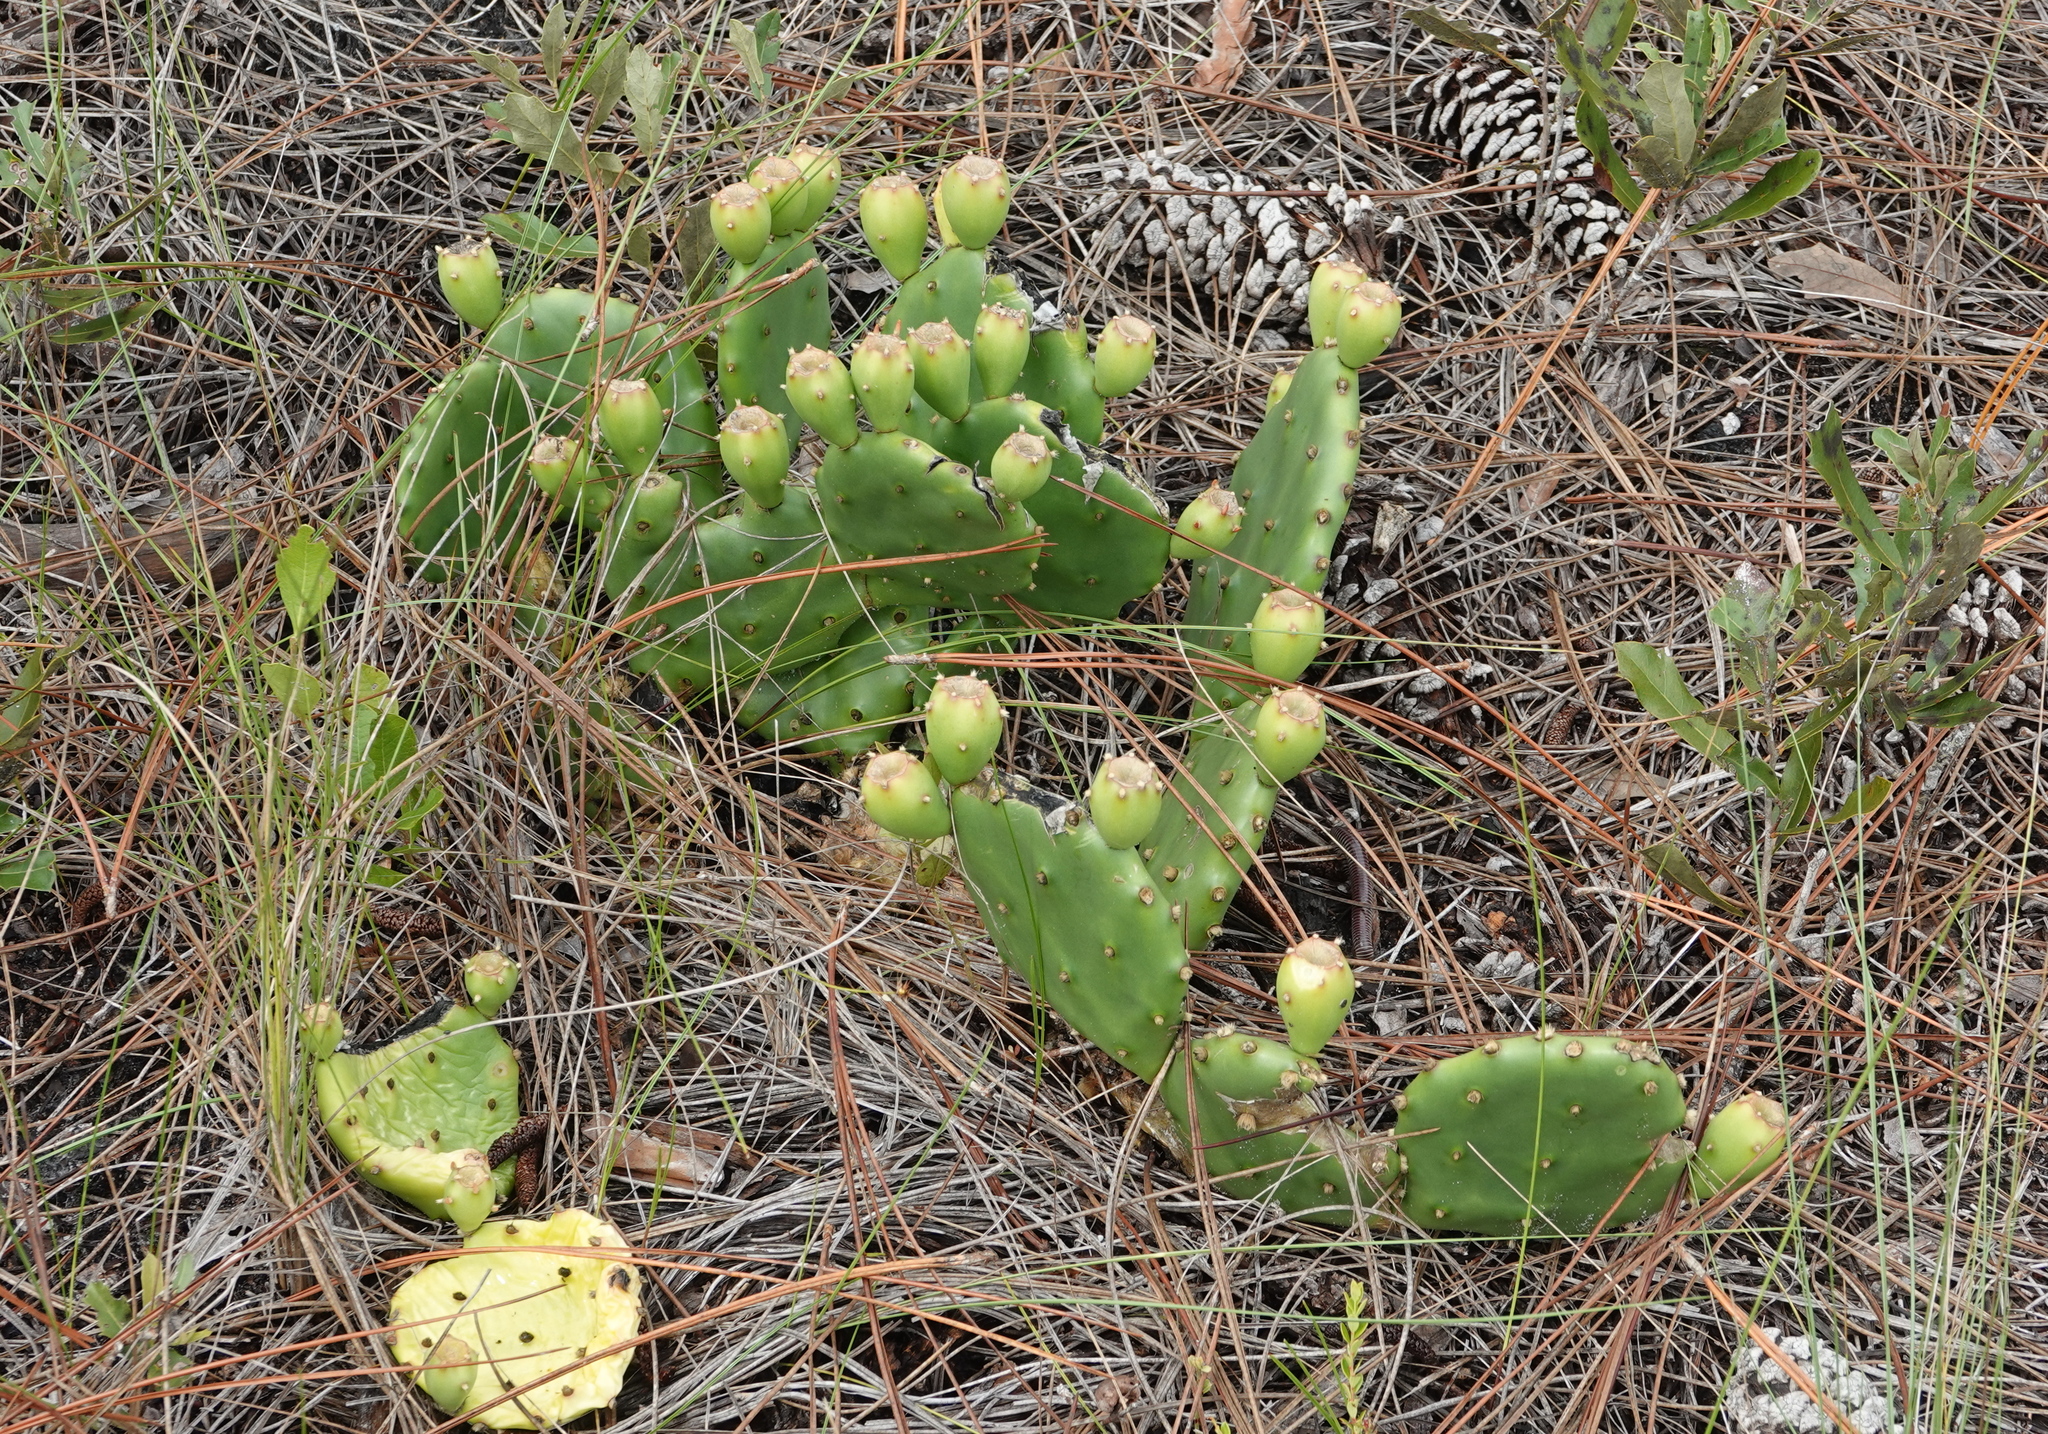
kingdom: Plantae
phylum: Tracheophyta
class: Magnoliopsida
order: Caryophyllales
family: Cactaceae
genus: Opuntia
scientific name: Opuntia mesacantha
